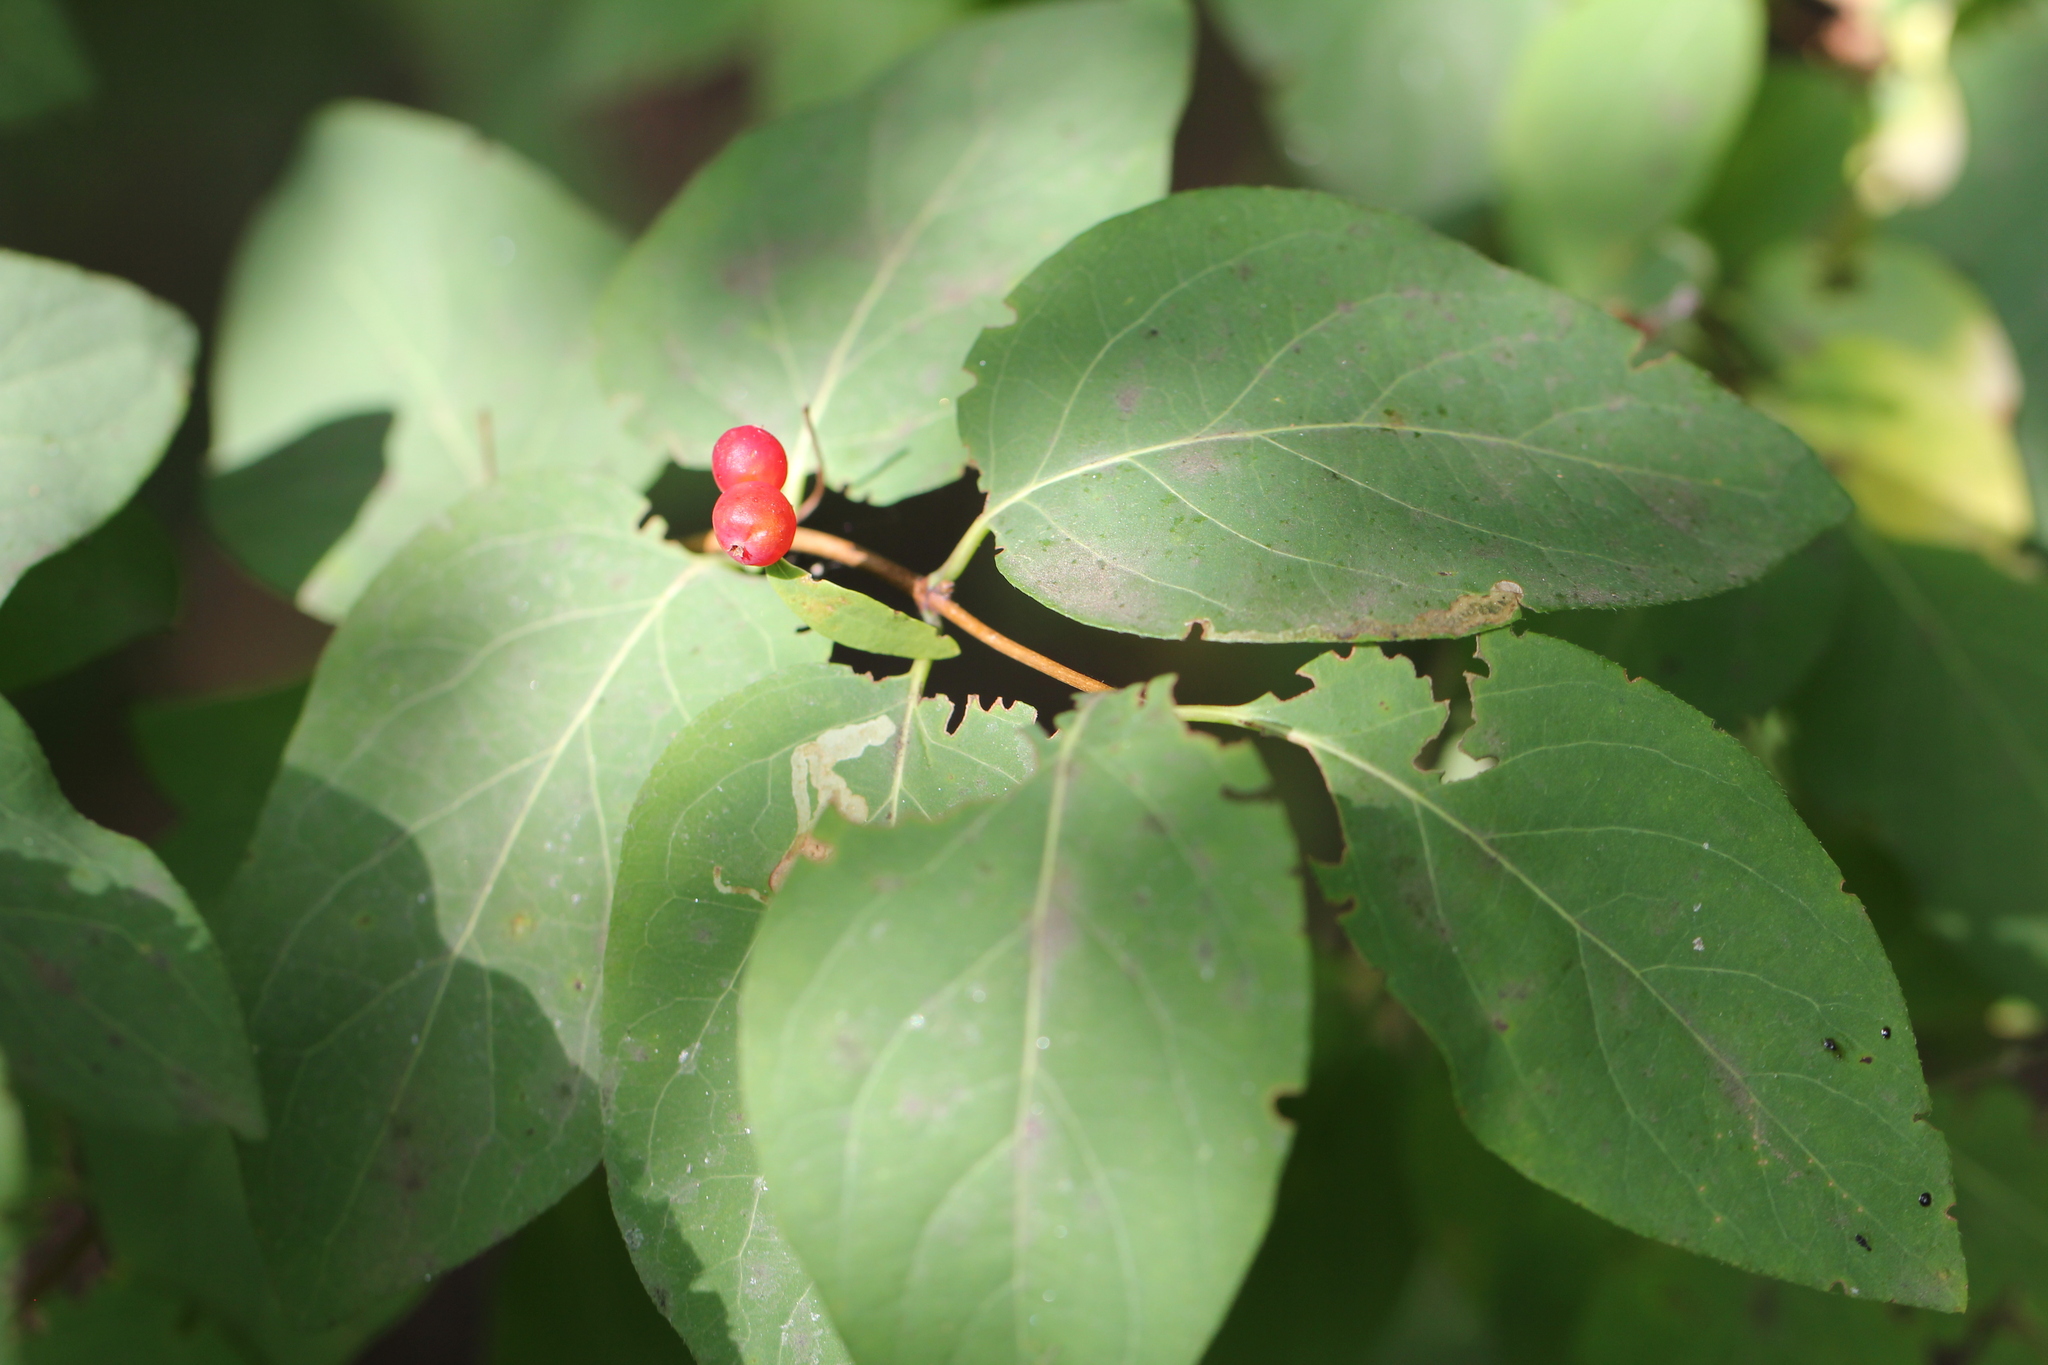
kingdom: Plantae
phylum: Tracheophyta
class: Magnoliopsida
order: Dipsacales
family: Caprifoliaceae
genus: Lonicera
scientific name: Lonicera tatarica
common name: Tatarian honeysuckle
